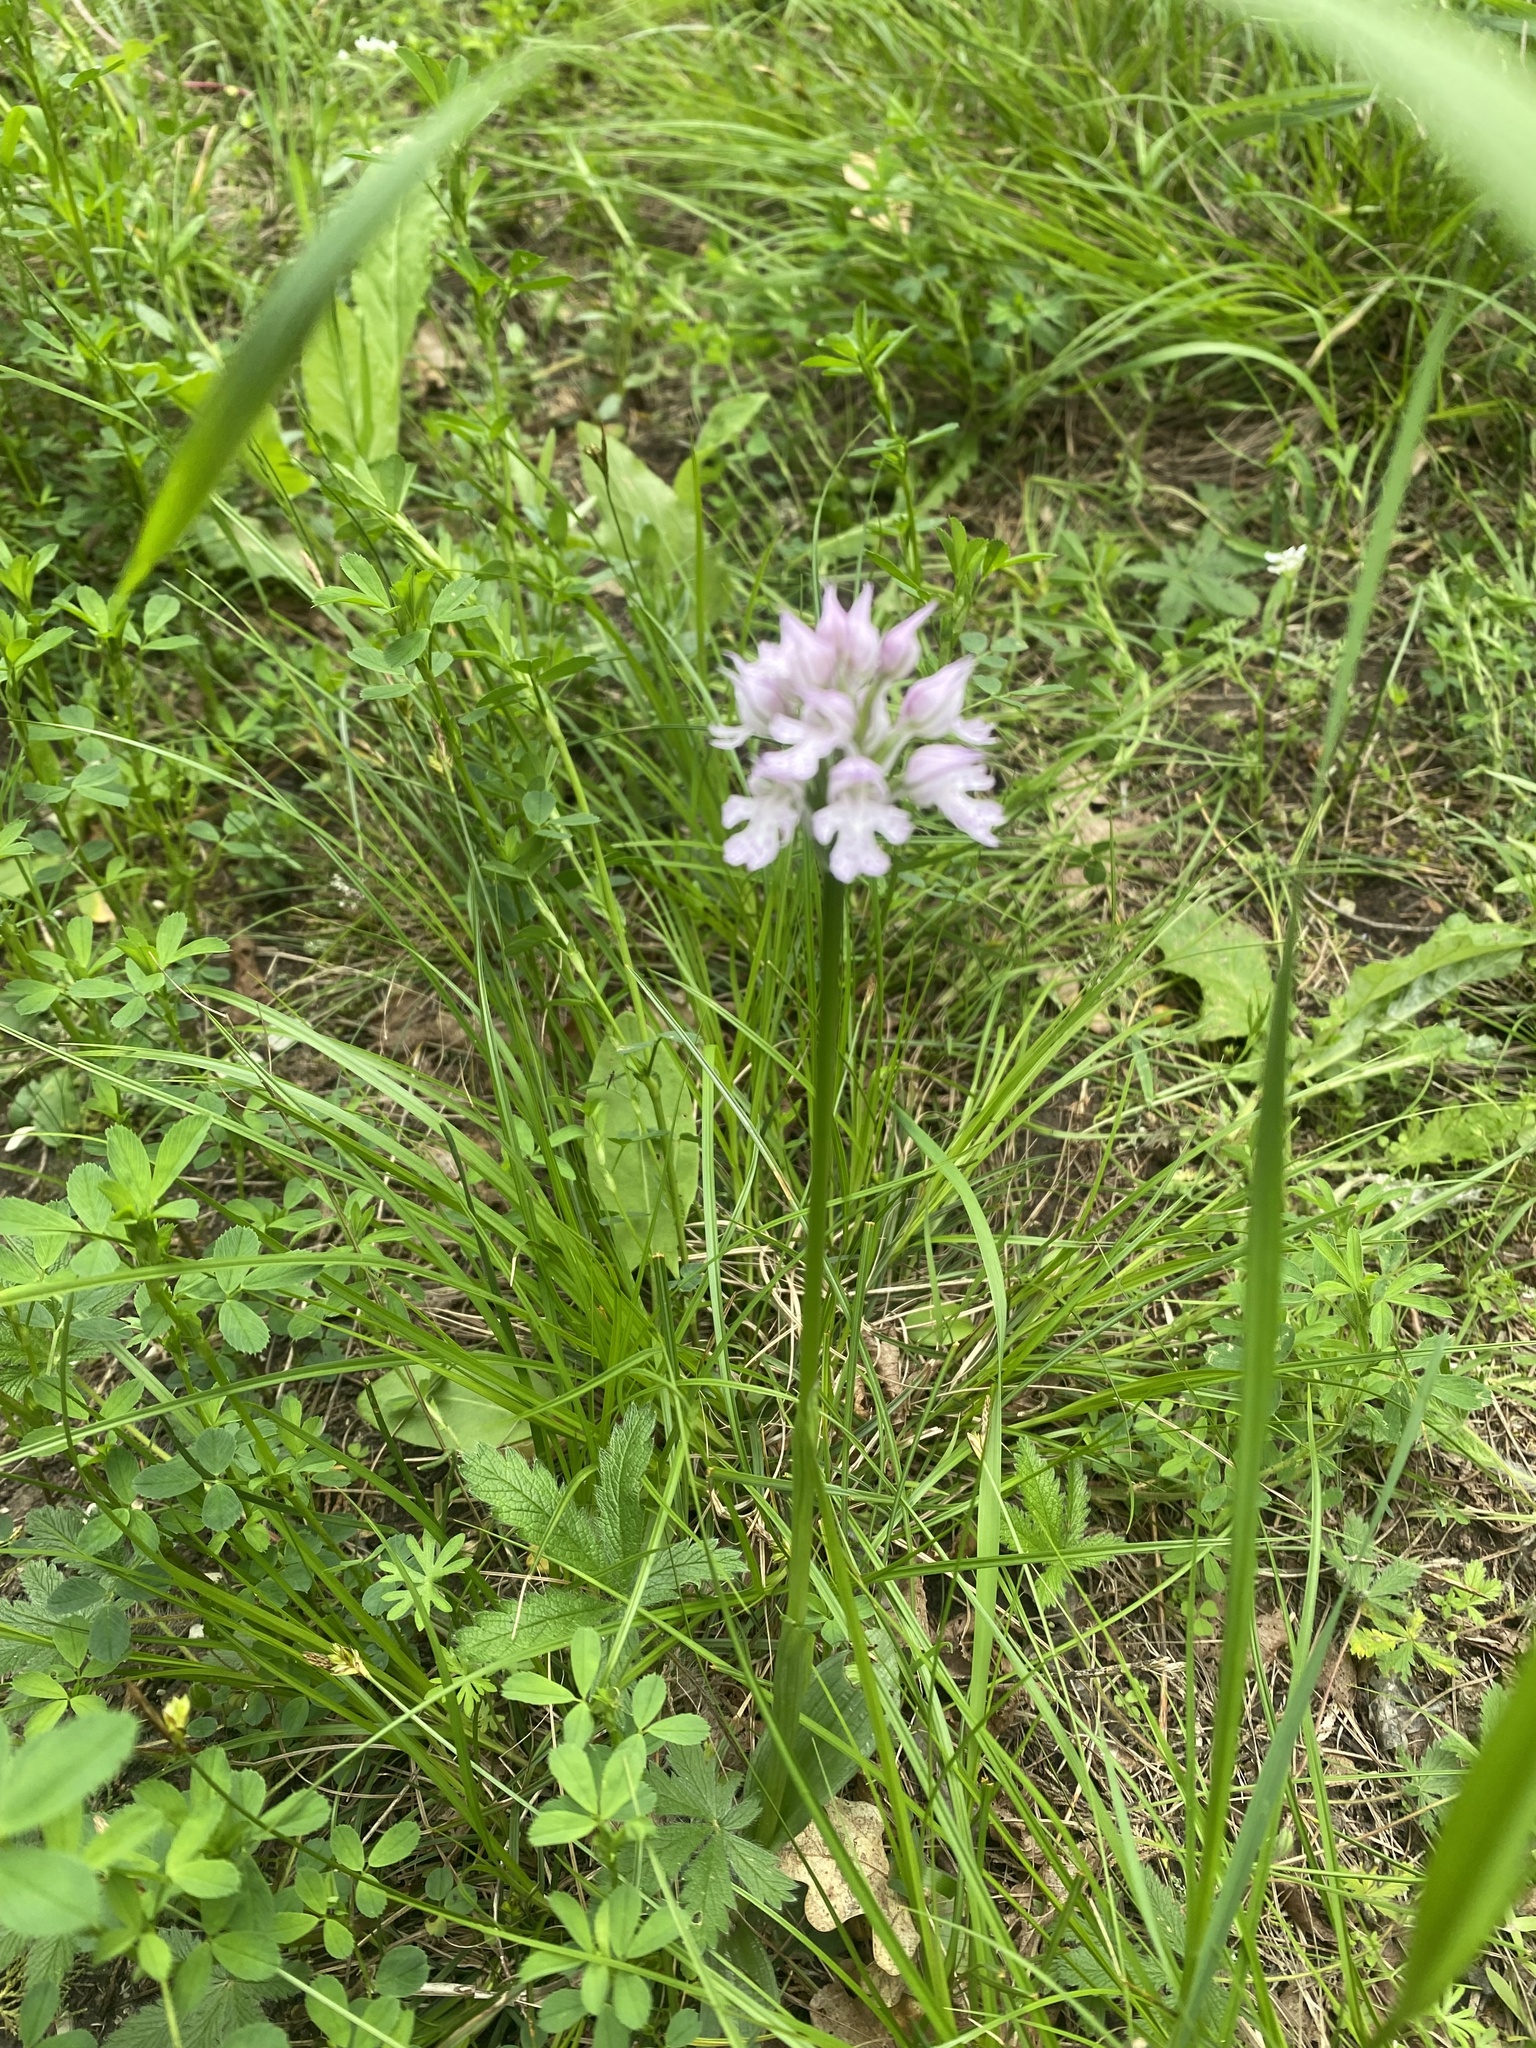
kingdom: Plantae
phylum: Tracheophyta
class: Liliopsida
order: Asparagales
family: Orchidaceae
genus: Neotinea
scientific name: Neotinea tridentata
